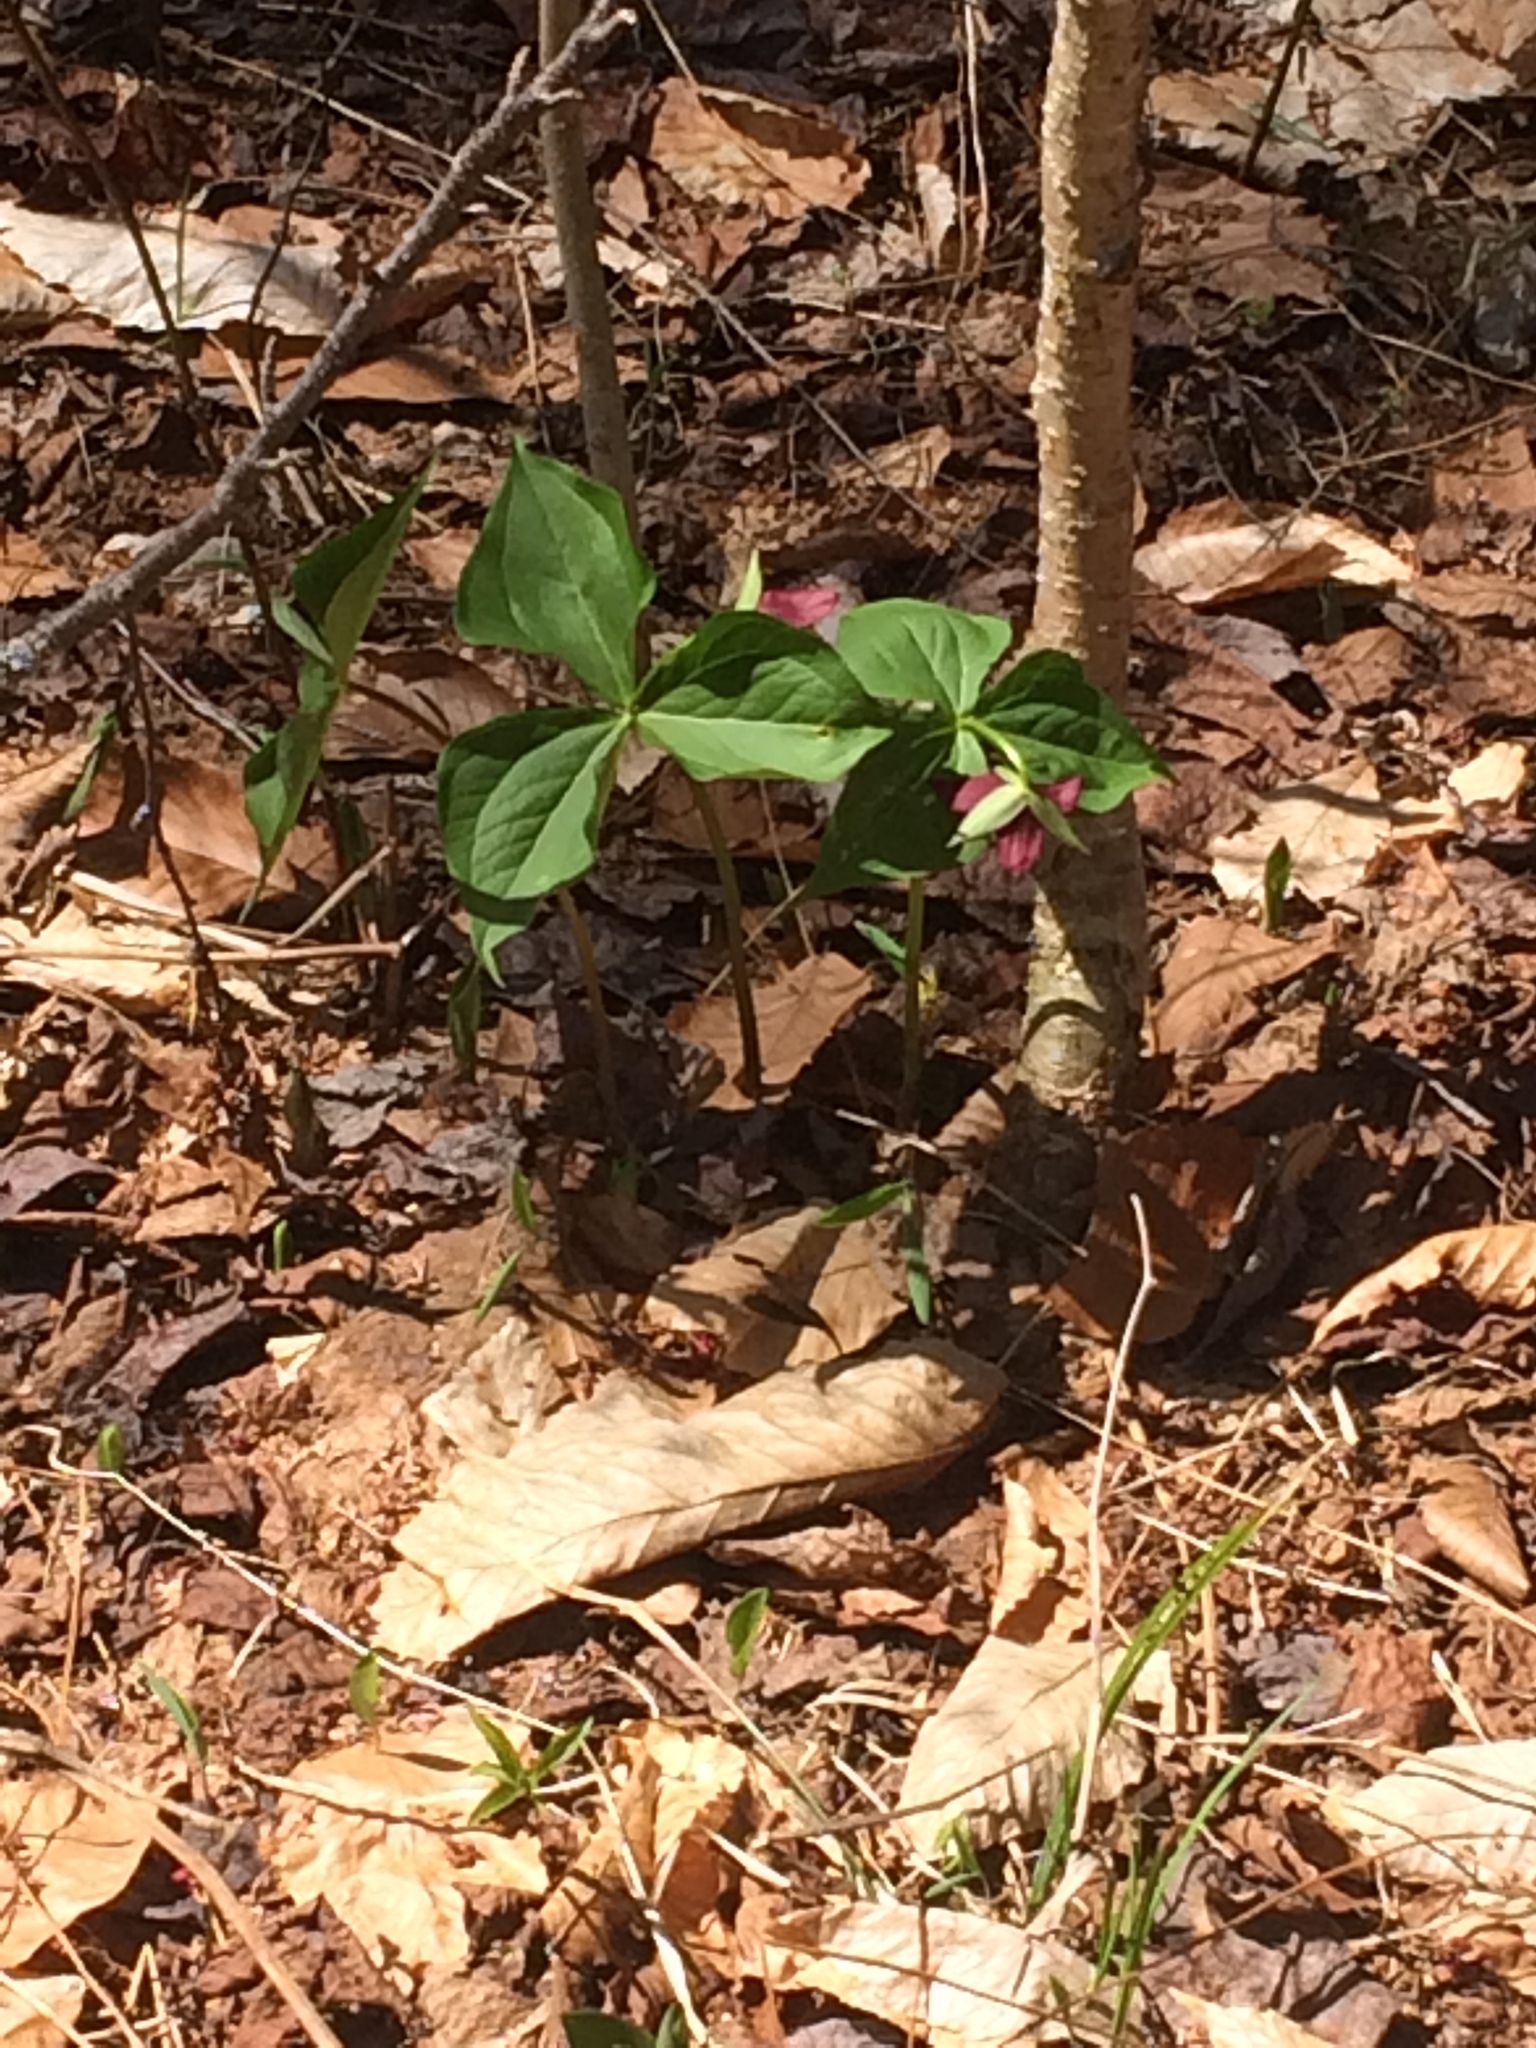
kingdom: Plantae
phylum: Tracheophyta
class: Liliopsida
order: Liliales
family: Melanthiaceae
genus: Trillium
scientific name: Trillium erectum
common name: Purple trillium
